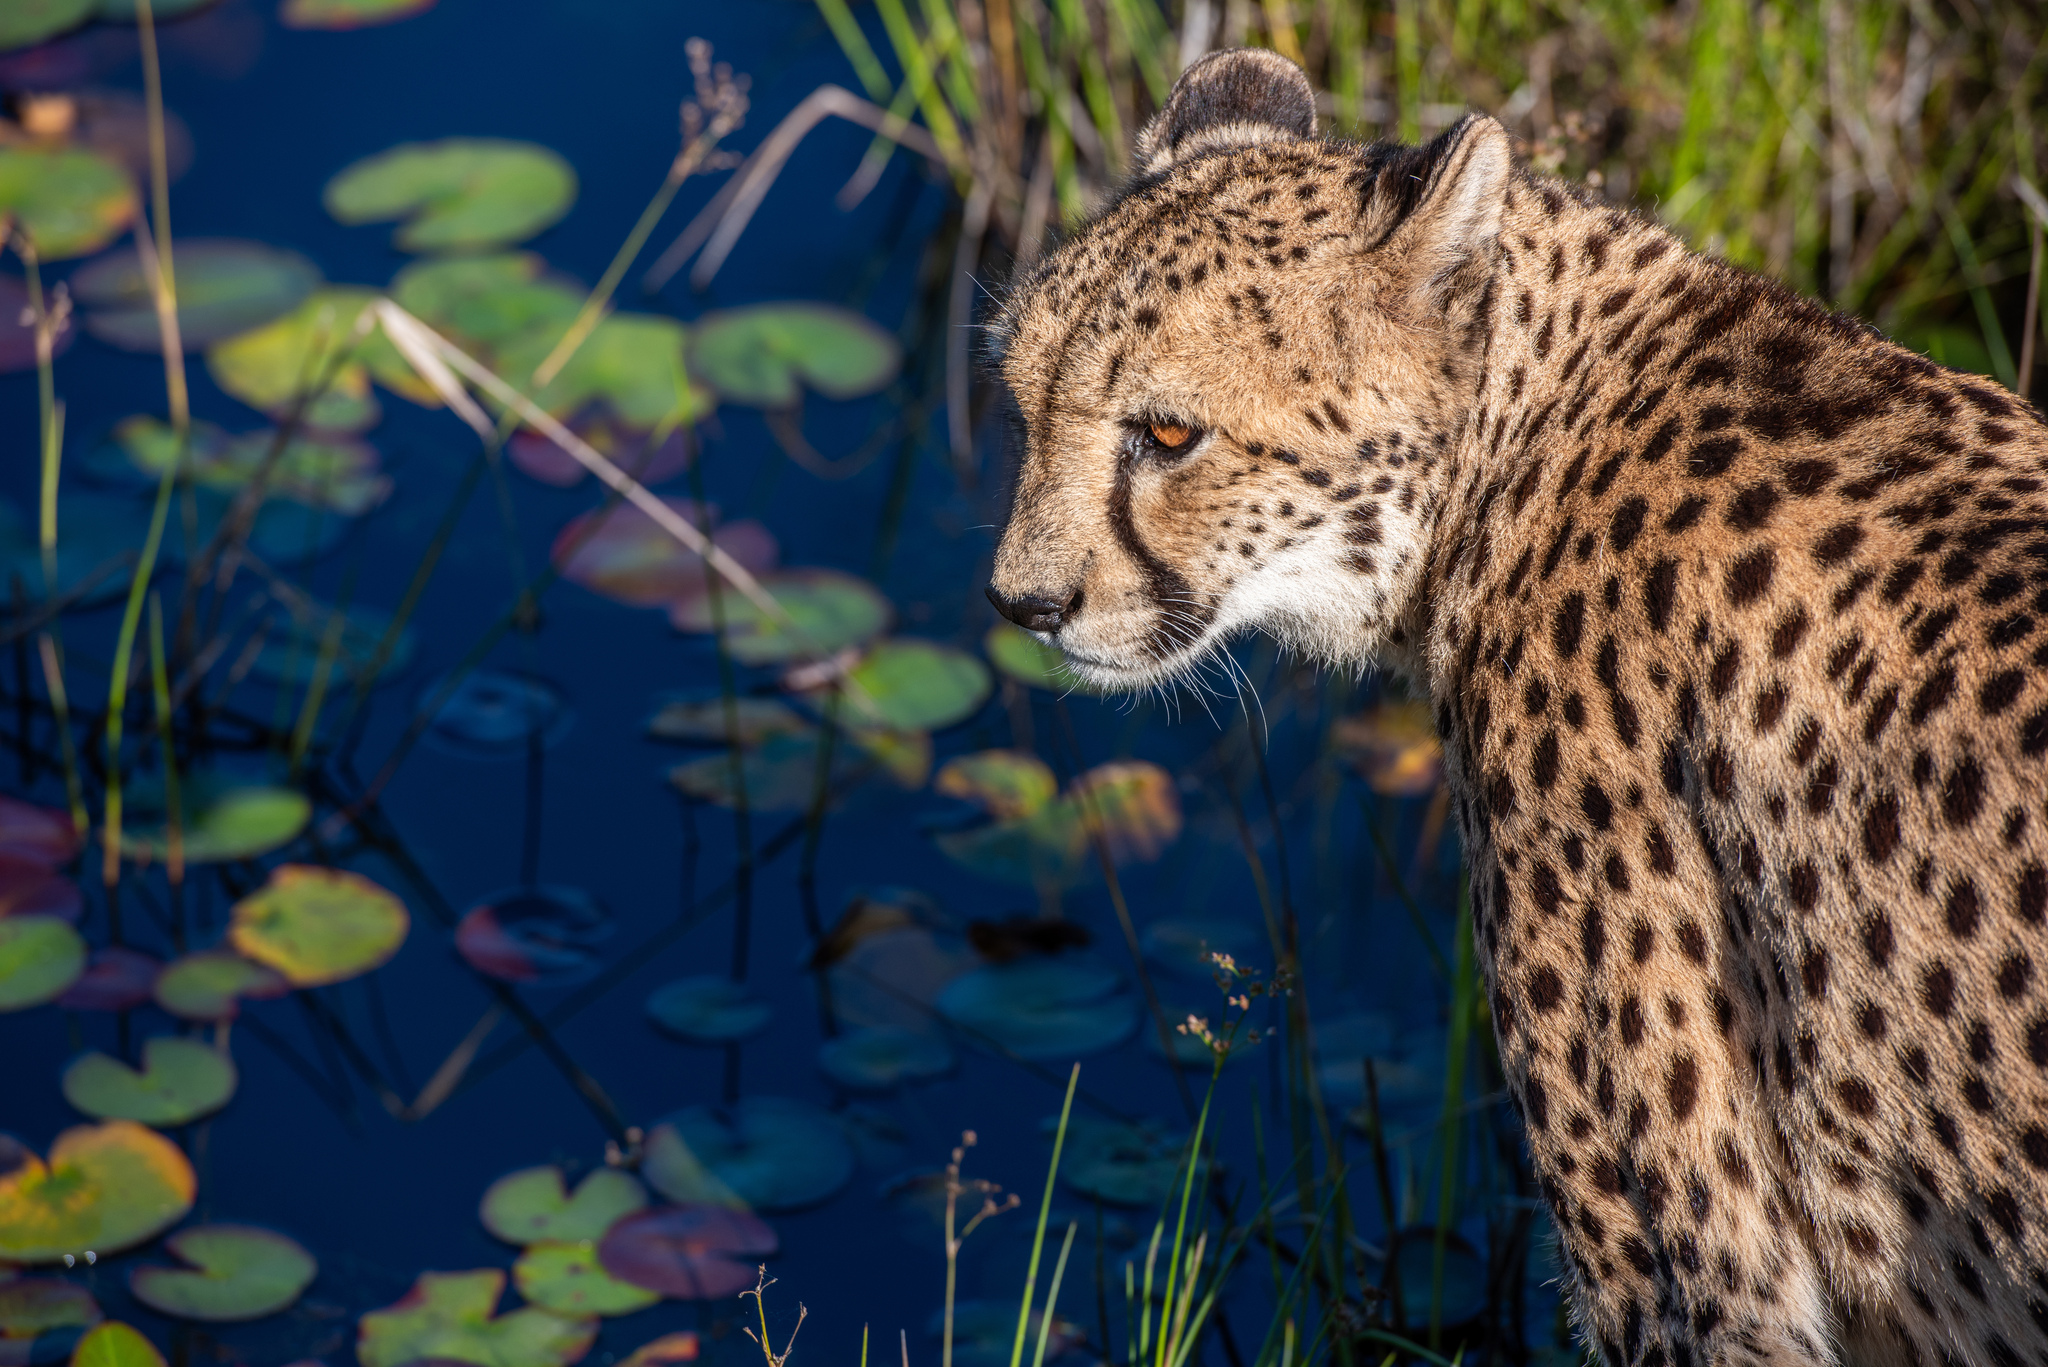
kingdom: Animalia
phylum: Chordata
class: Mammalia
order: Carnivora
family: Felidae
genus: Acinonyx
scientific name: Acinonyx jubatus
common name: Cheetah
